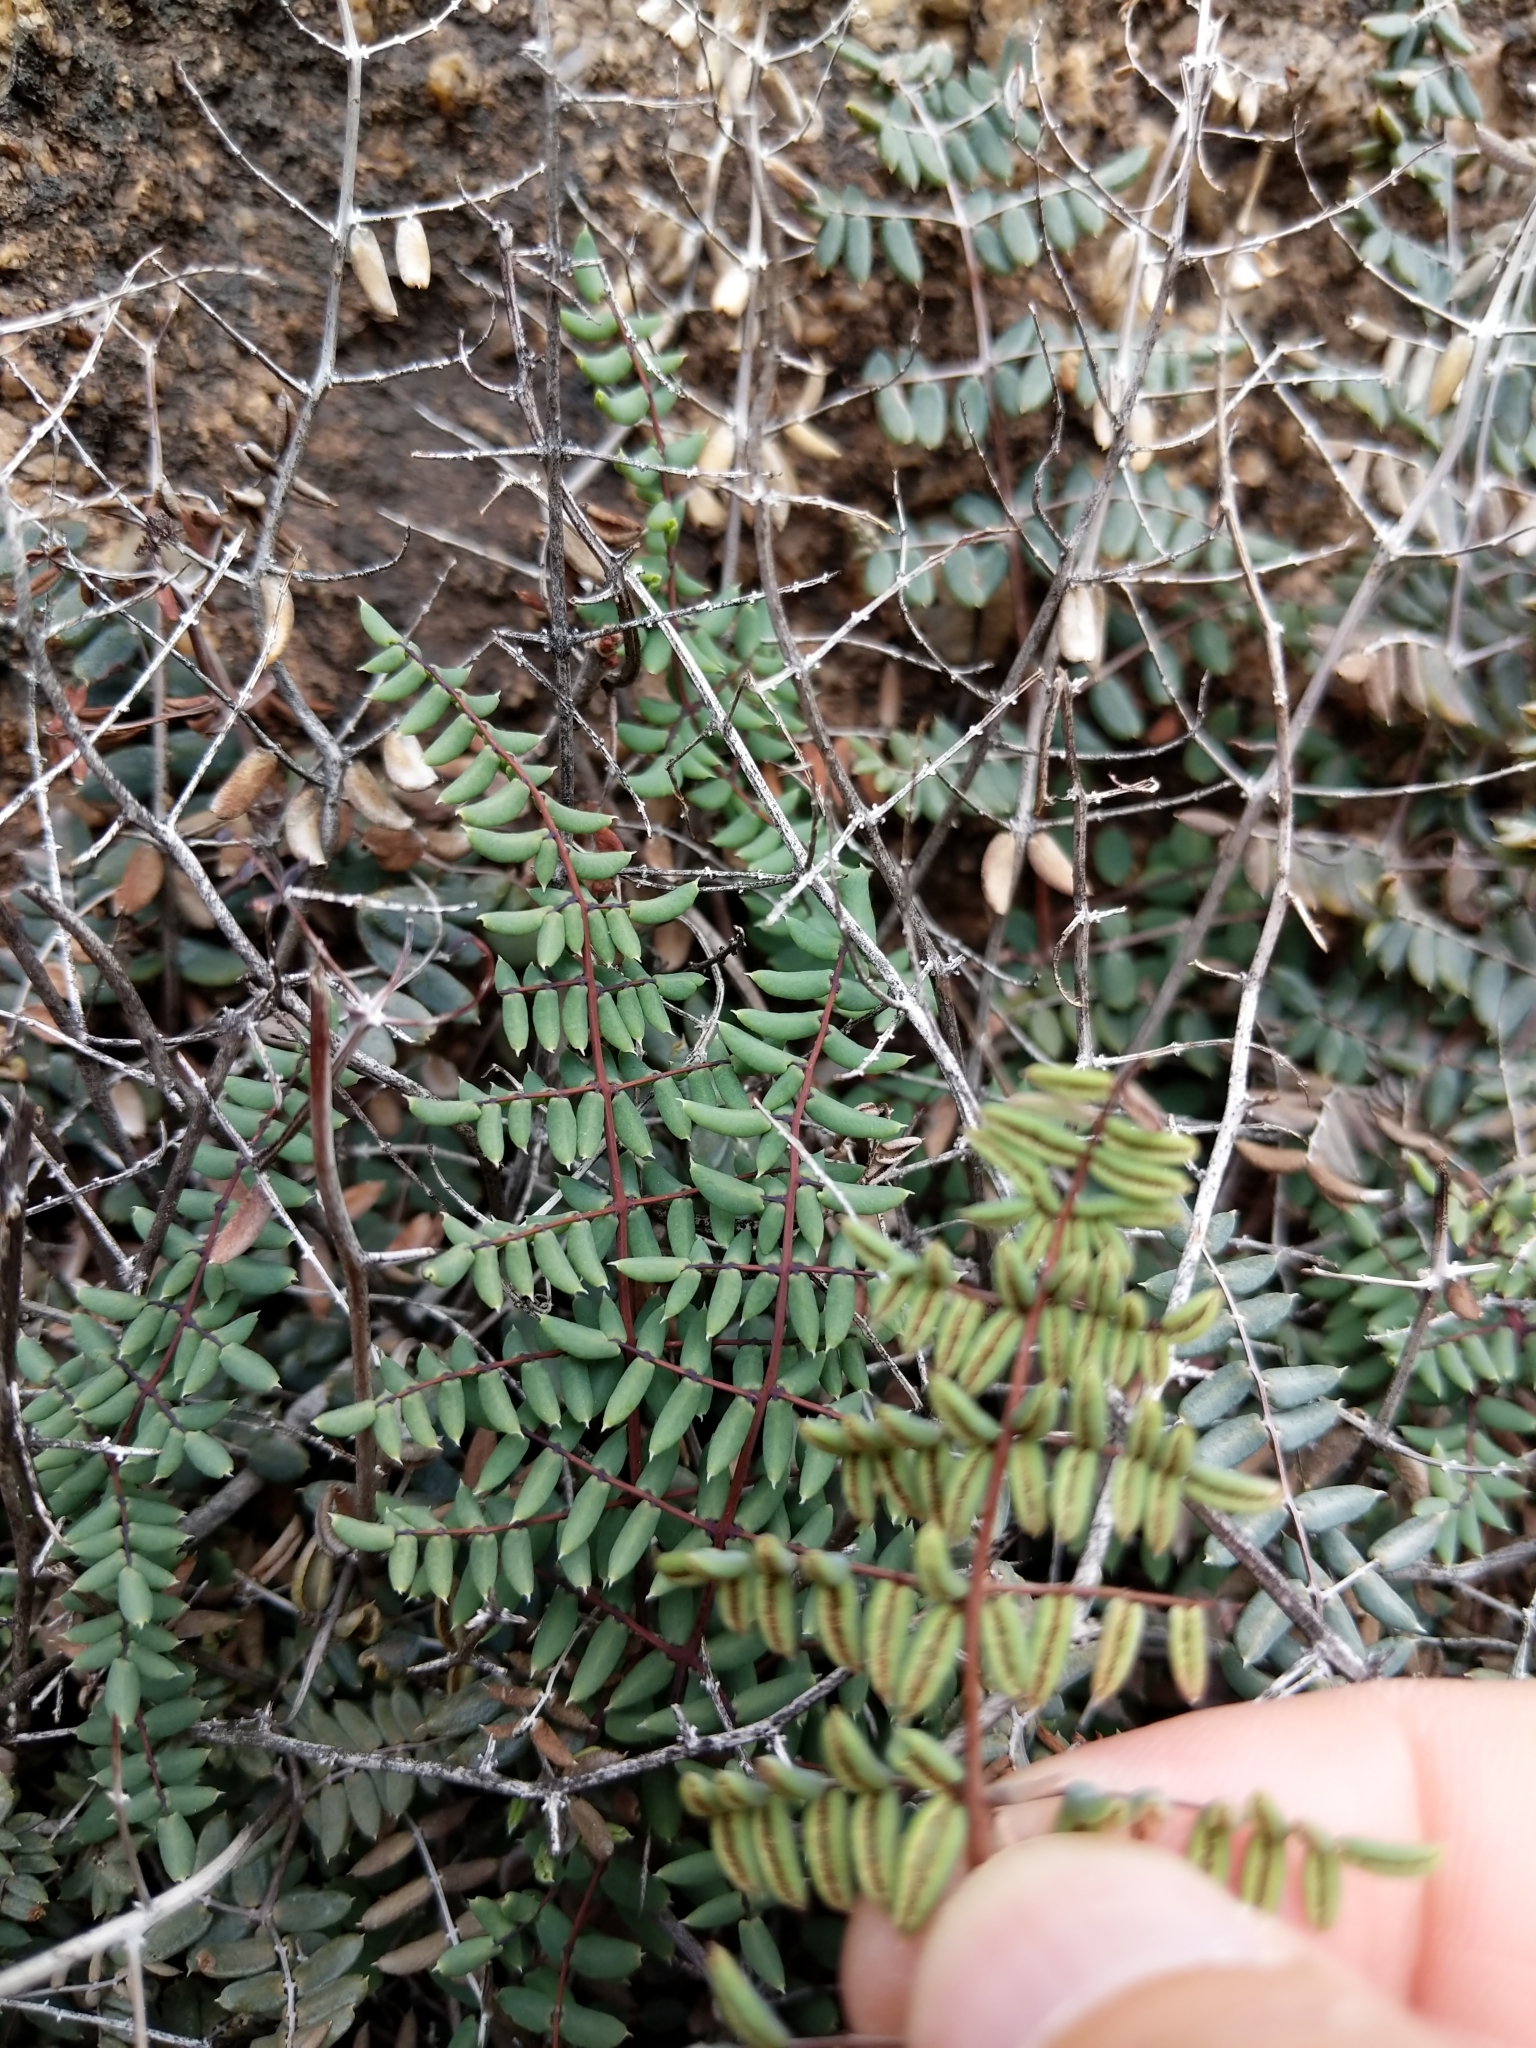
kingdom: Plantae
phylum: Tracheophyta
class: Polypodiopsida
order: Polypodiales
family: Pteridaceae
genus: Pellaea
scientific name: Pellaea truncata
